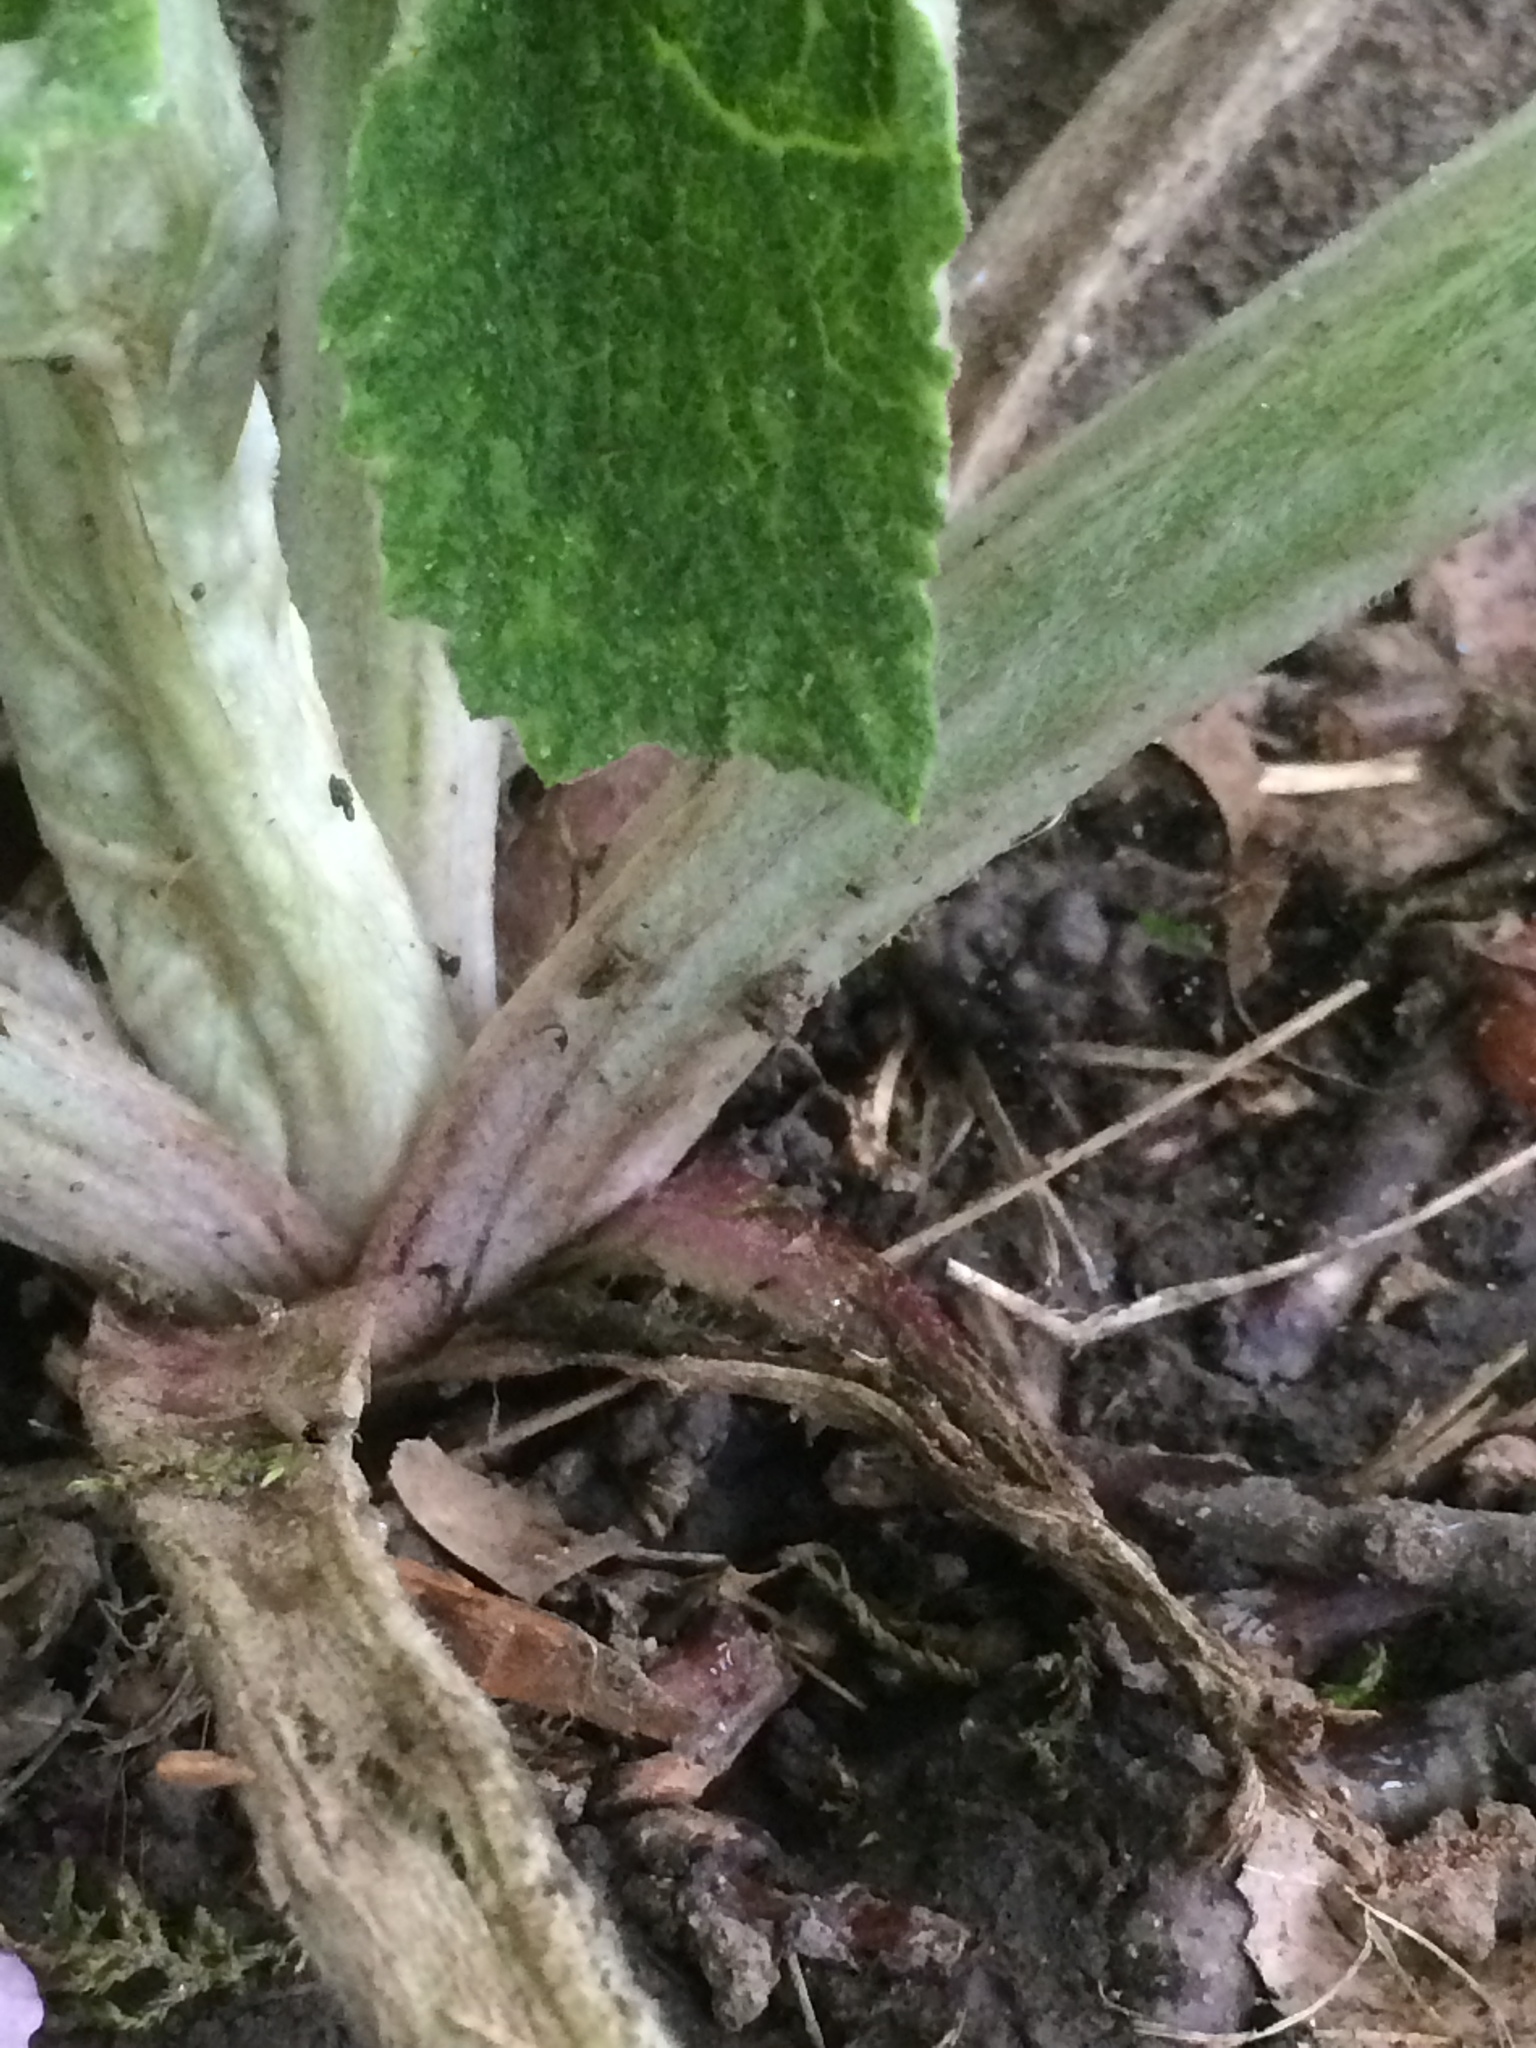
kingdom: Plantae
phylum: Tracheophyta
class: Magnoliopsida
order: Asterales
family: Asteraceae
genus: Arctium
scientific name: Arctium minus
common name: Lesser burdock
